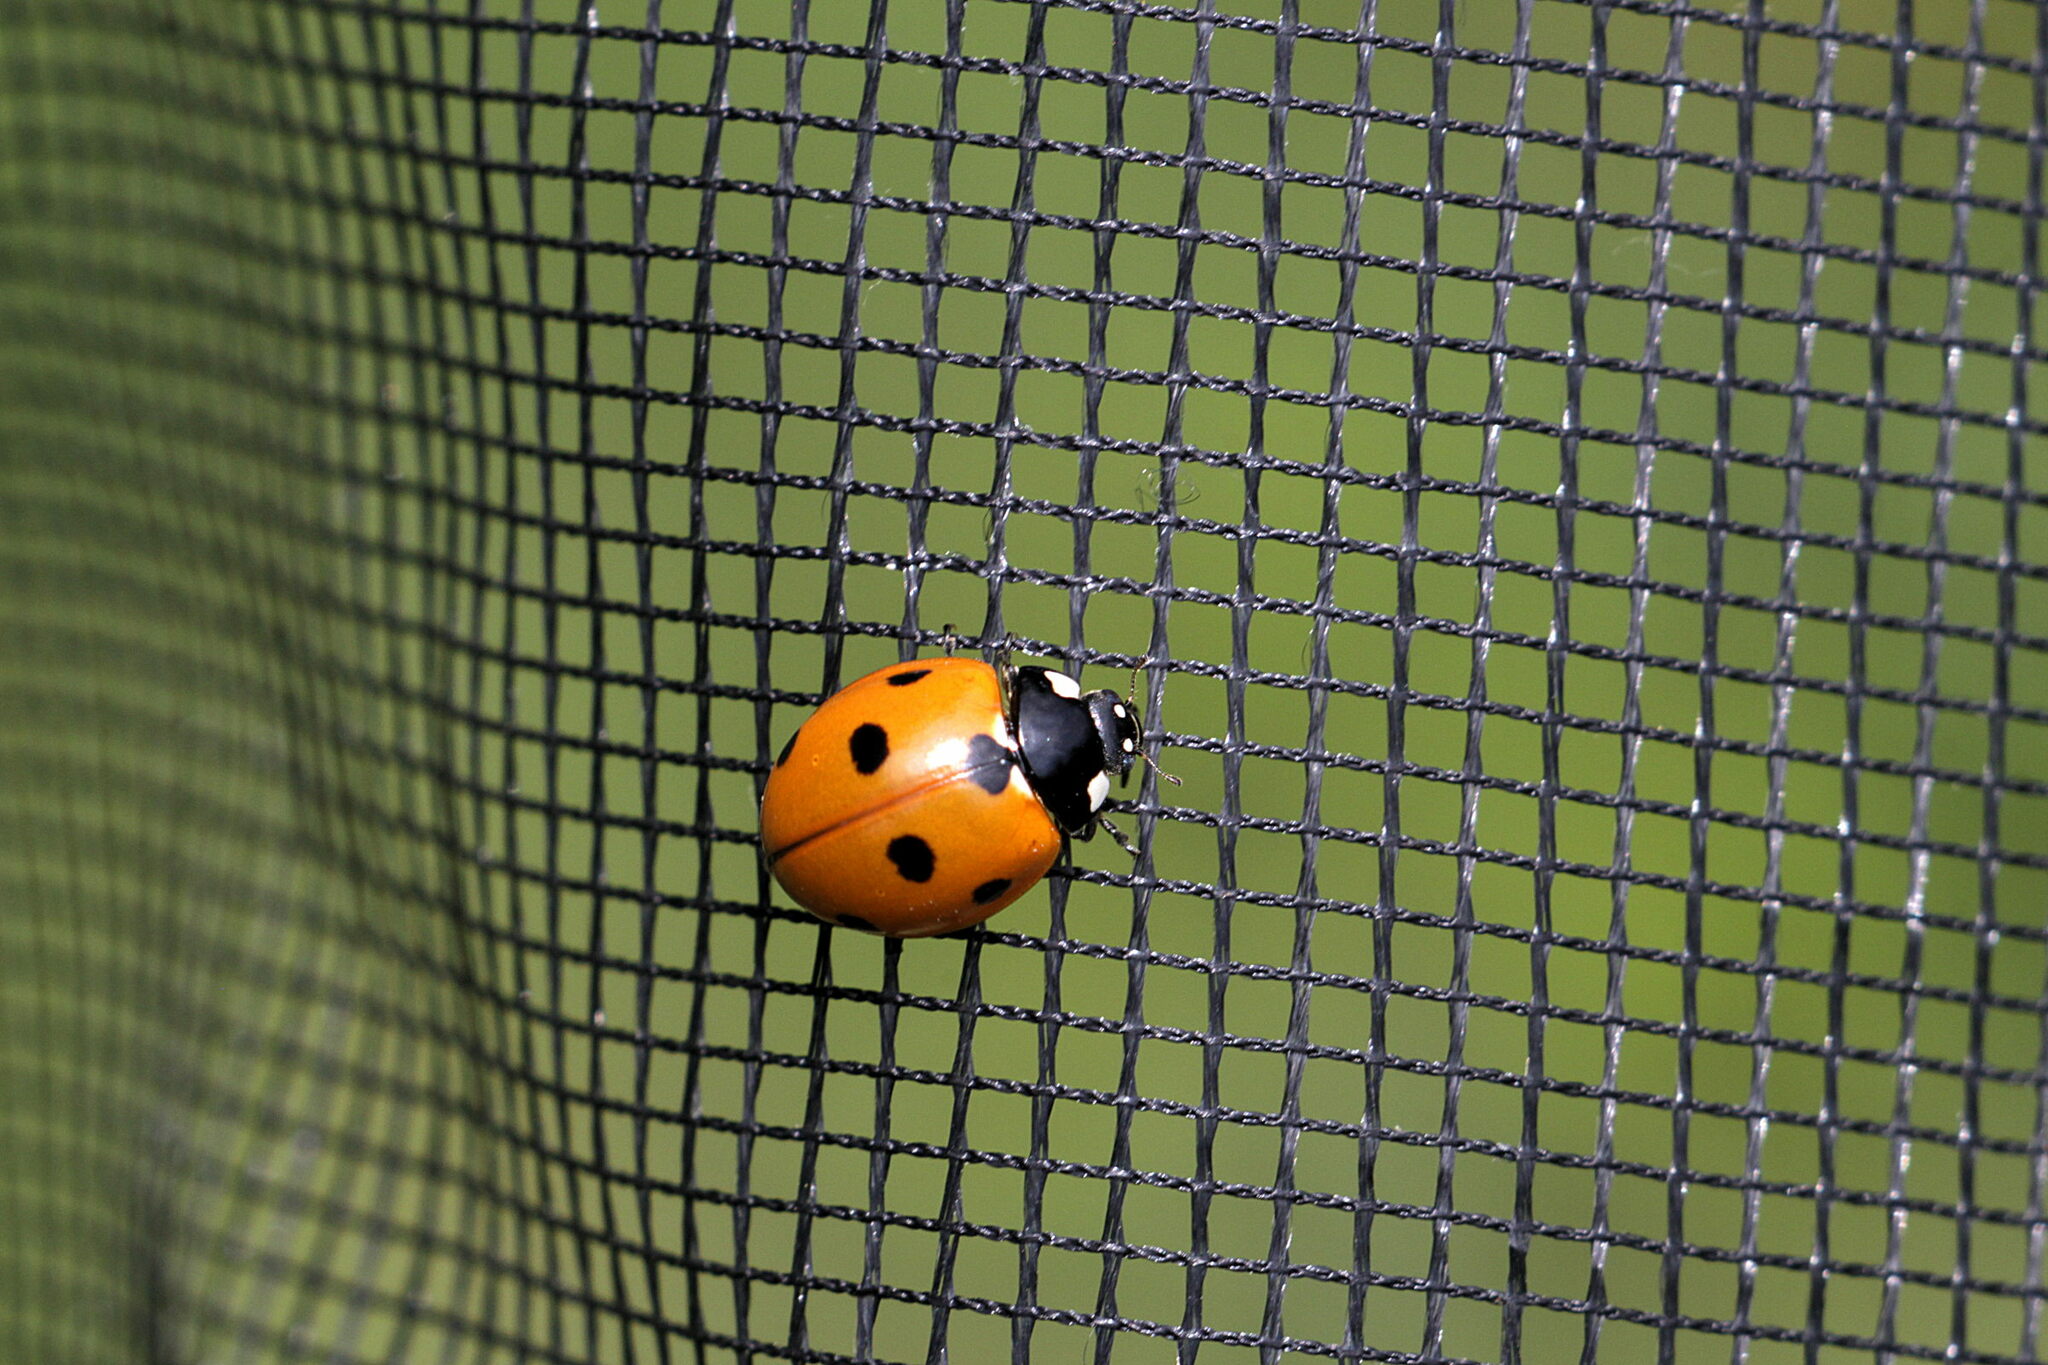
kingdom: Animalia
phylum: Arthropoda
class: Insecta
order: Coleoptera
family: Coccinellidae
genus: Coccinella
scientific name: Coccinella septempunctata
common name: Sevenspotted lady beetle
